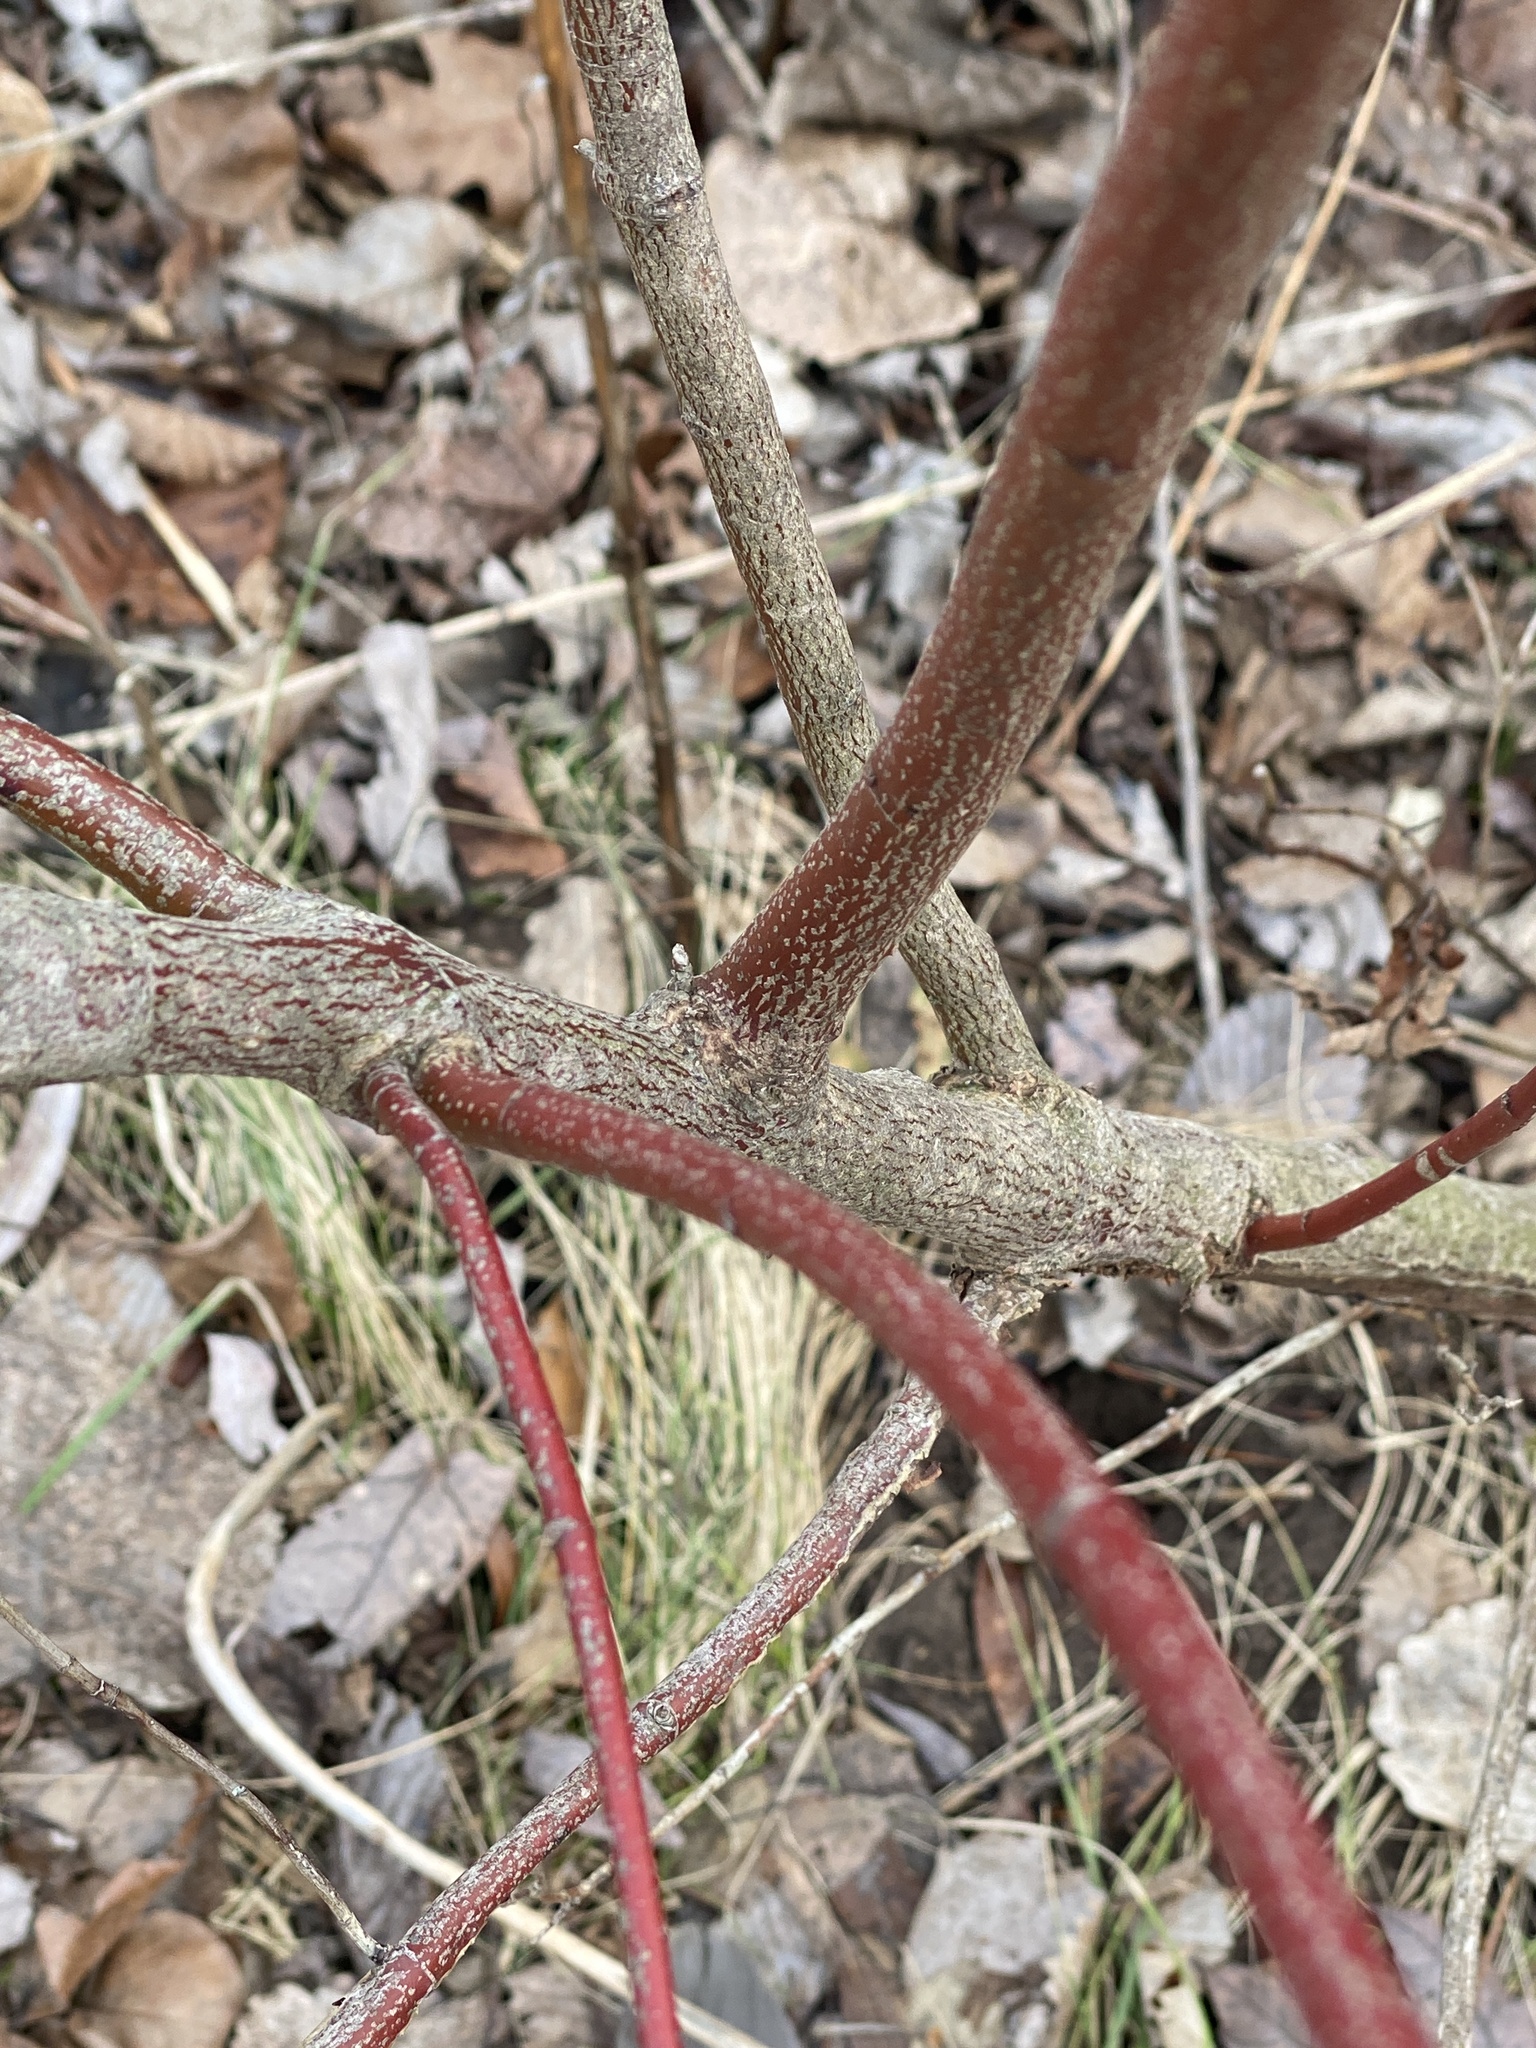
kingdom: Plantae
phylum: Tracheophyta
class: Magnoliopsida
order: Cornales
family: Cornaceae
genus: Cornus
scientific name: Cornus amomum
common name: Silky dogwood
